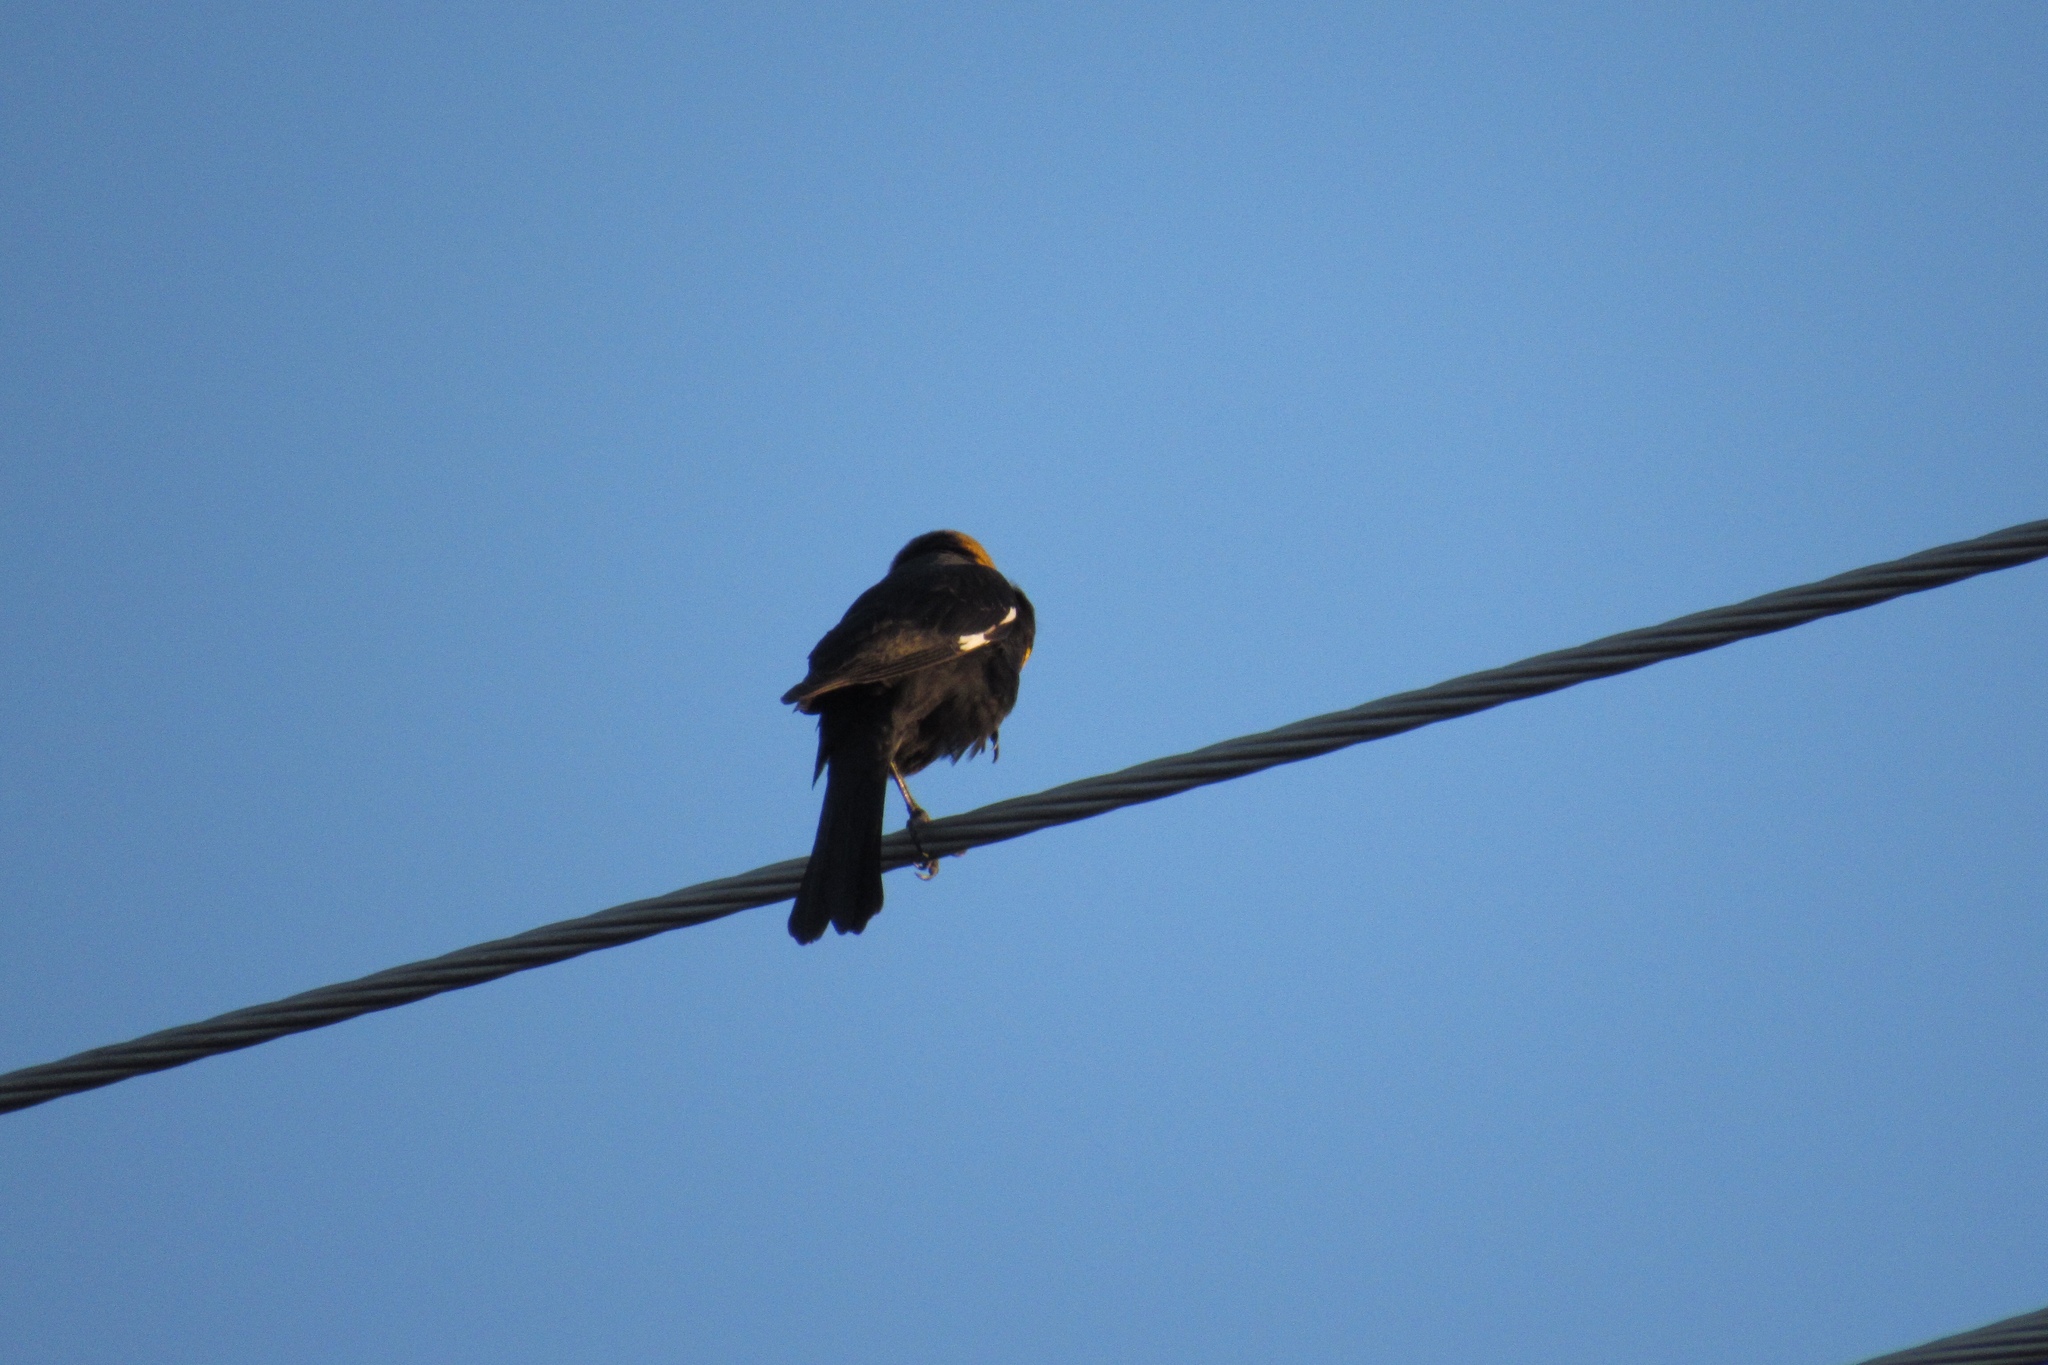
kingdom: Animalia
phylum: Chordata
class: Aves
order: Passeriformes
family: Icteridae
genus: Xanthocephalus
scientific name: Xanthocephalus xanthocephalus
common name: Yellow-headed blackbird
